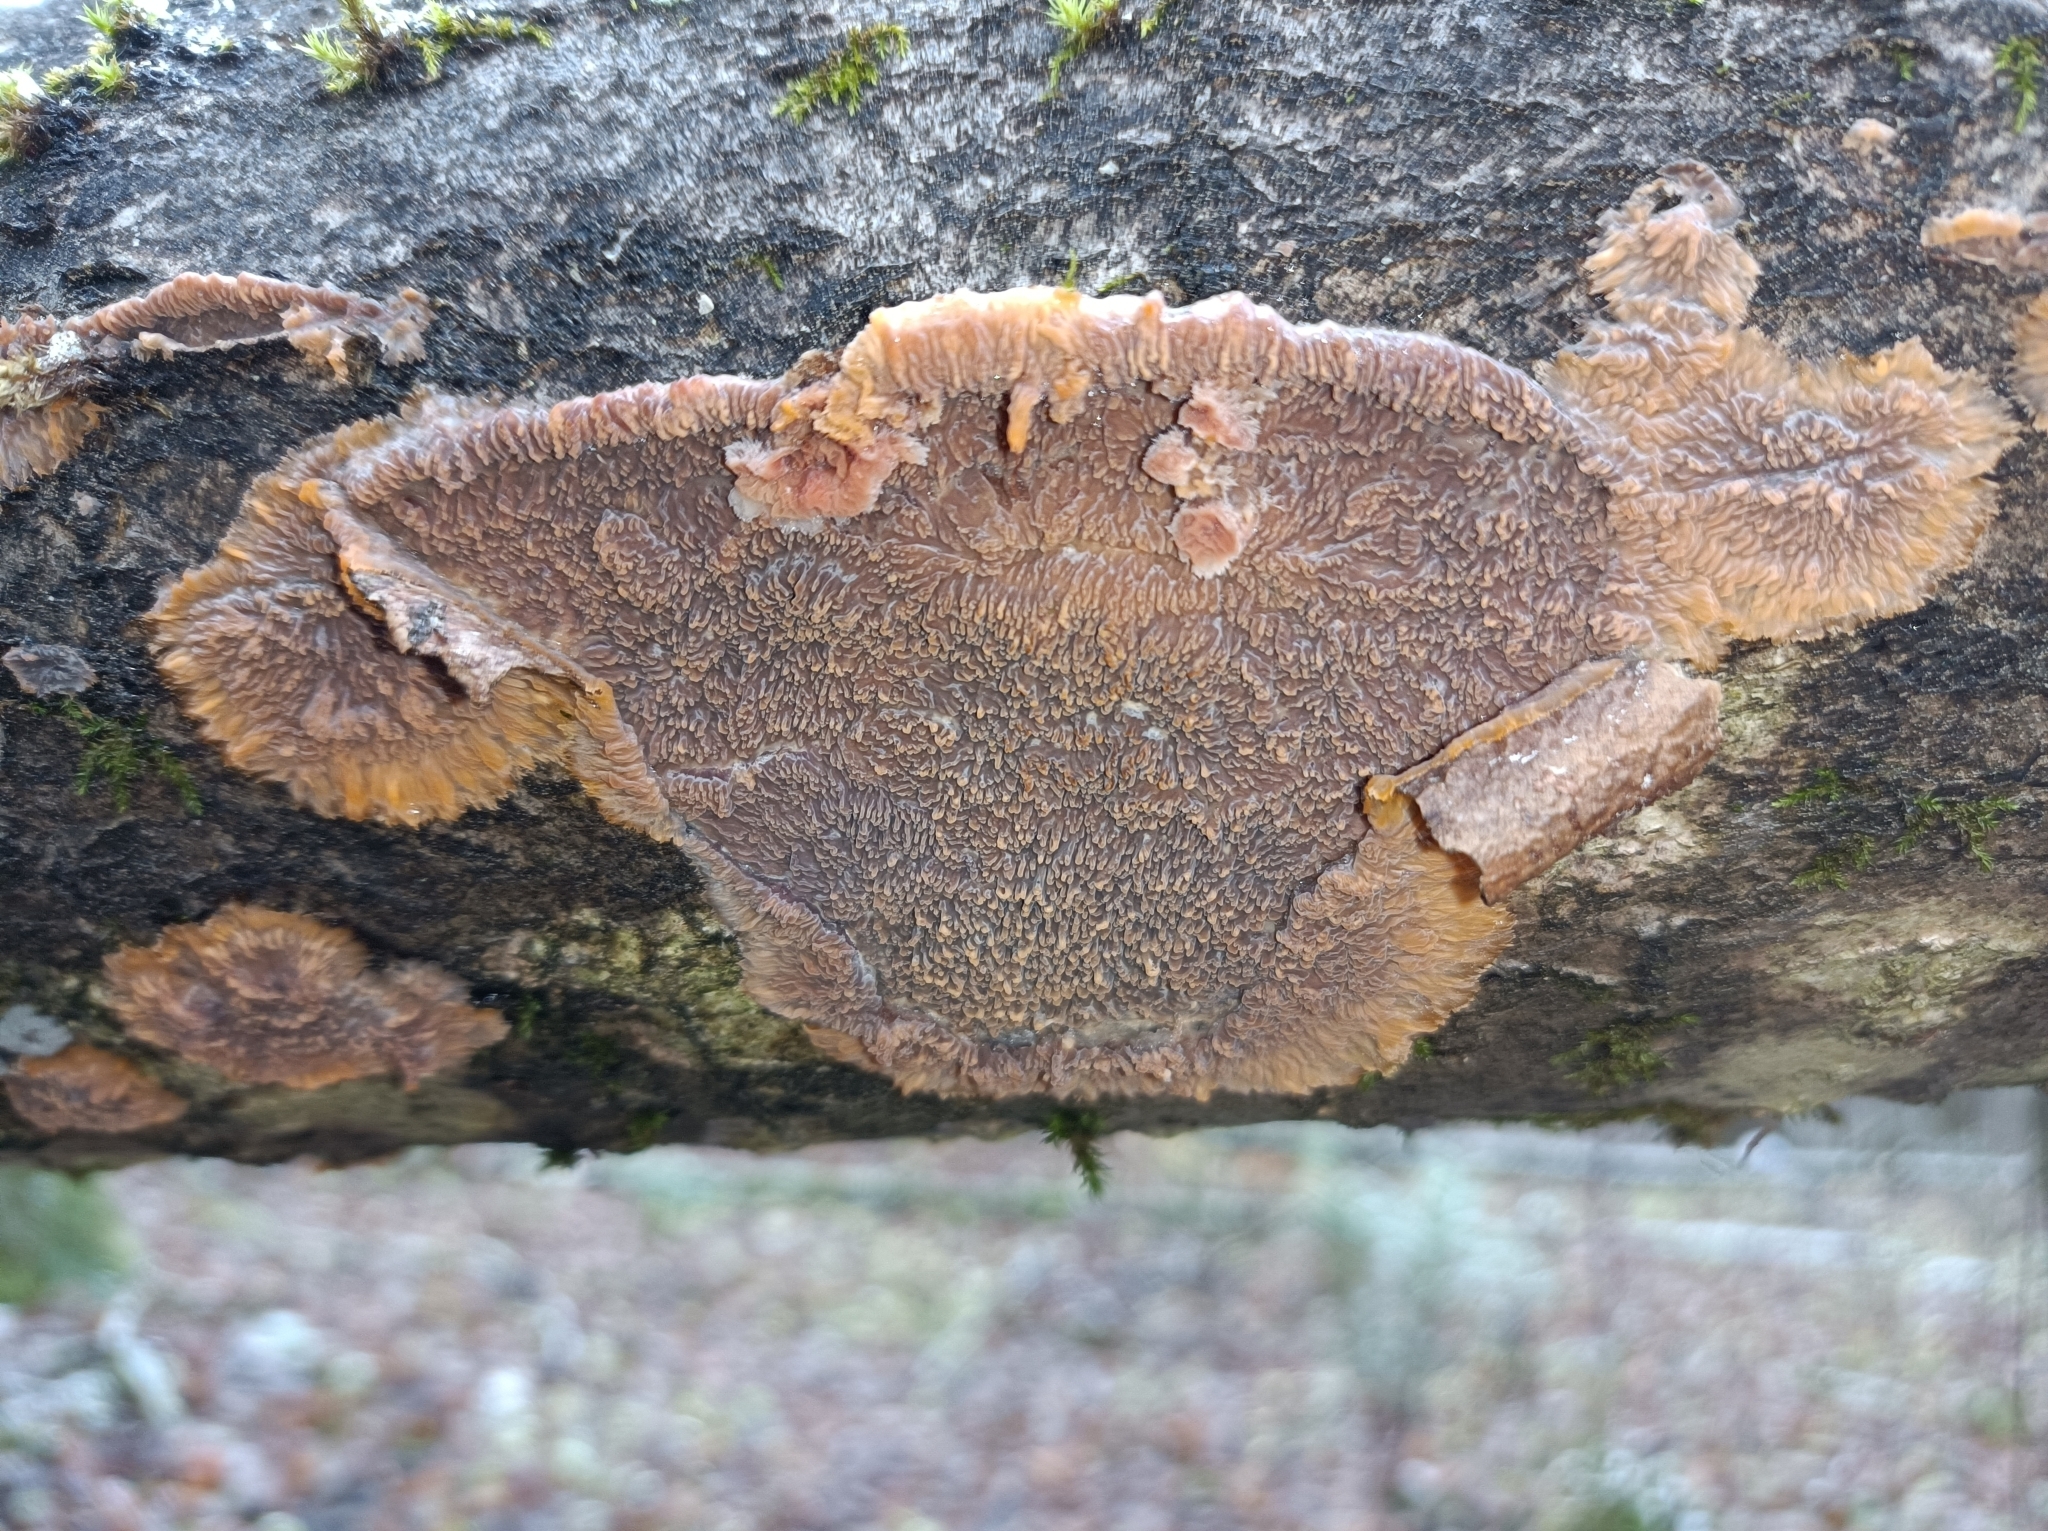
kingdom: Fungi
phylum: Basidiomycota
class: Agaricomycetes
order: Polyporales
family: Meruliaceae
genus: Phlebia
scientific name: Phlebia radiata
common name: Wrinkled crust
